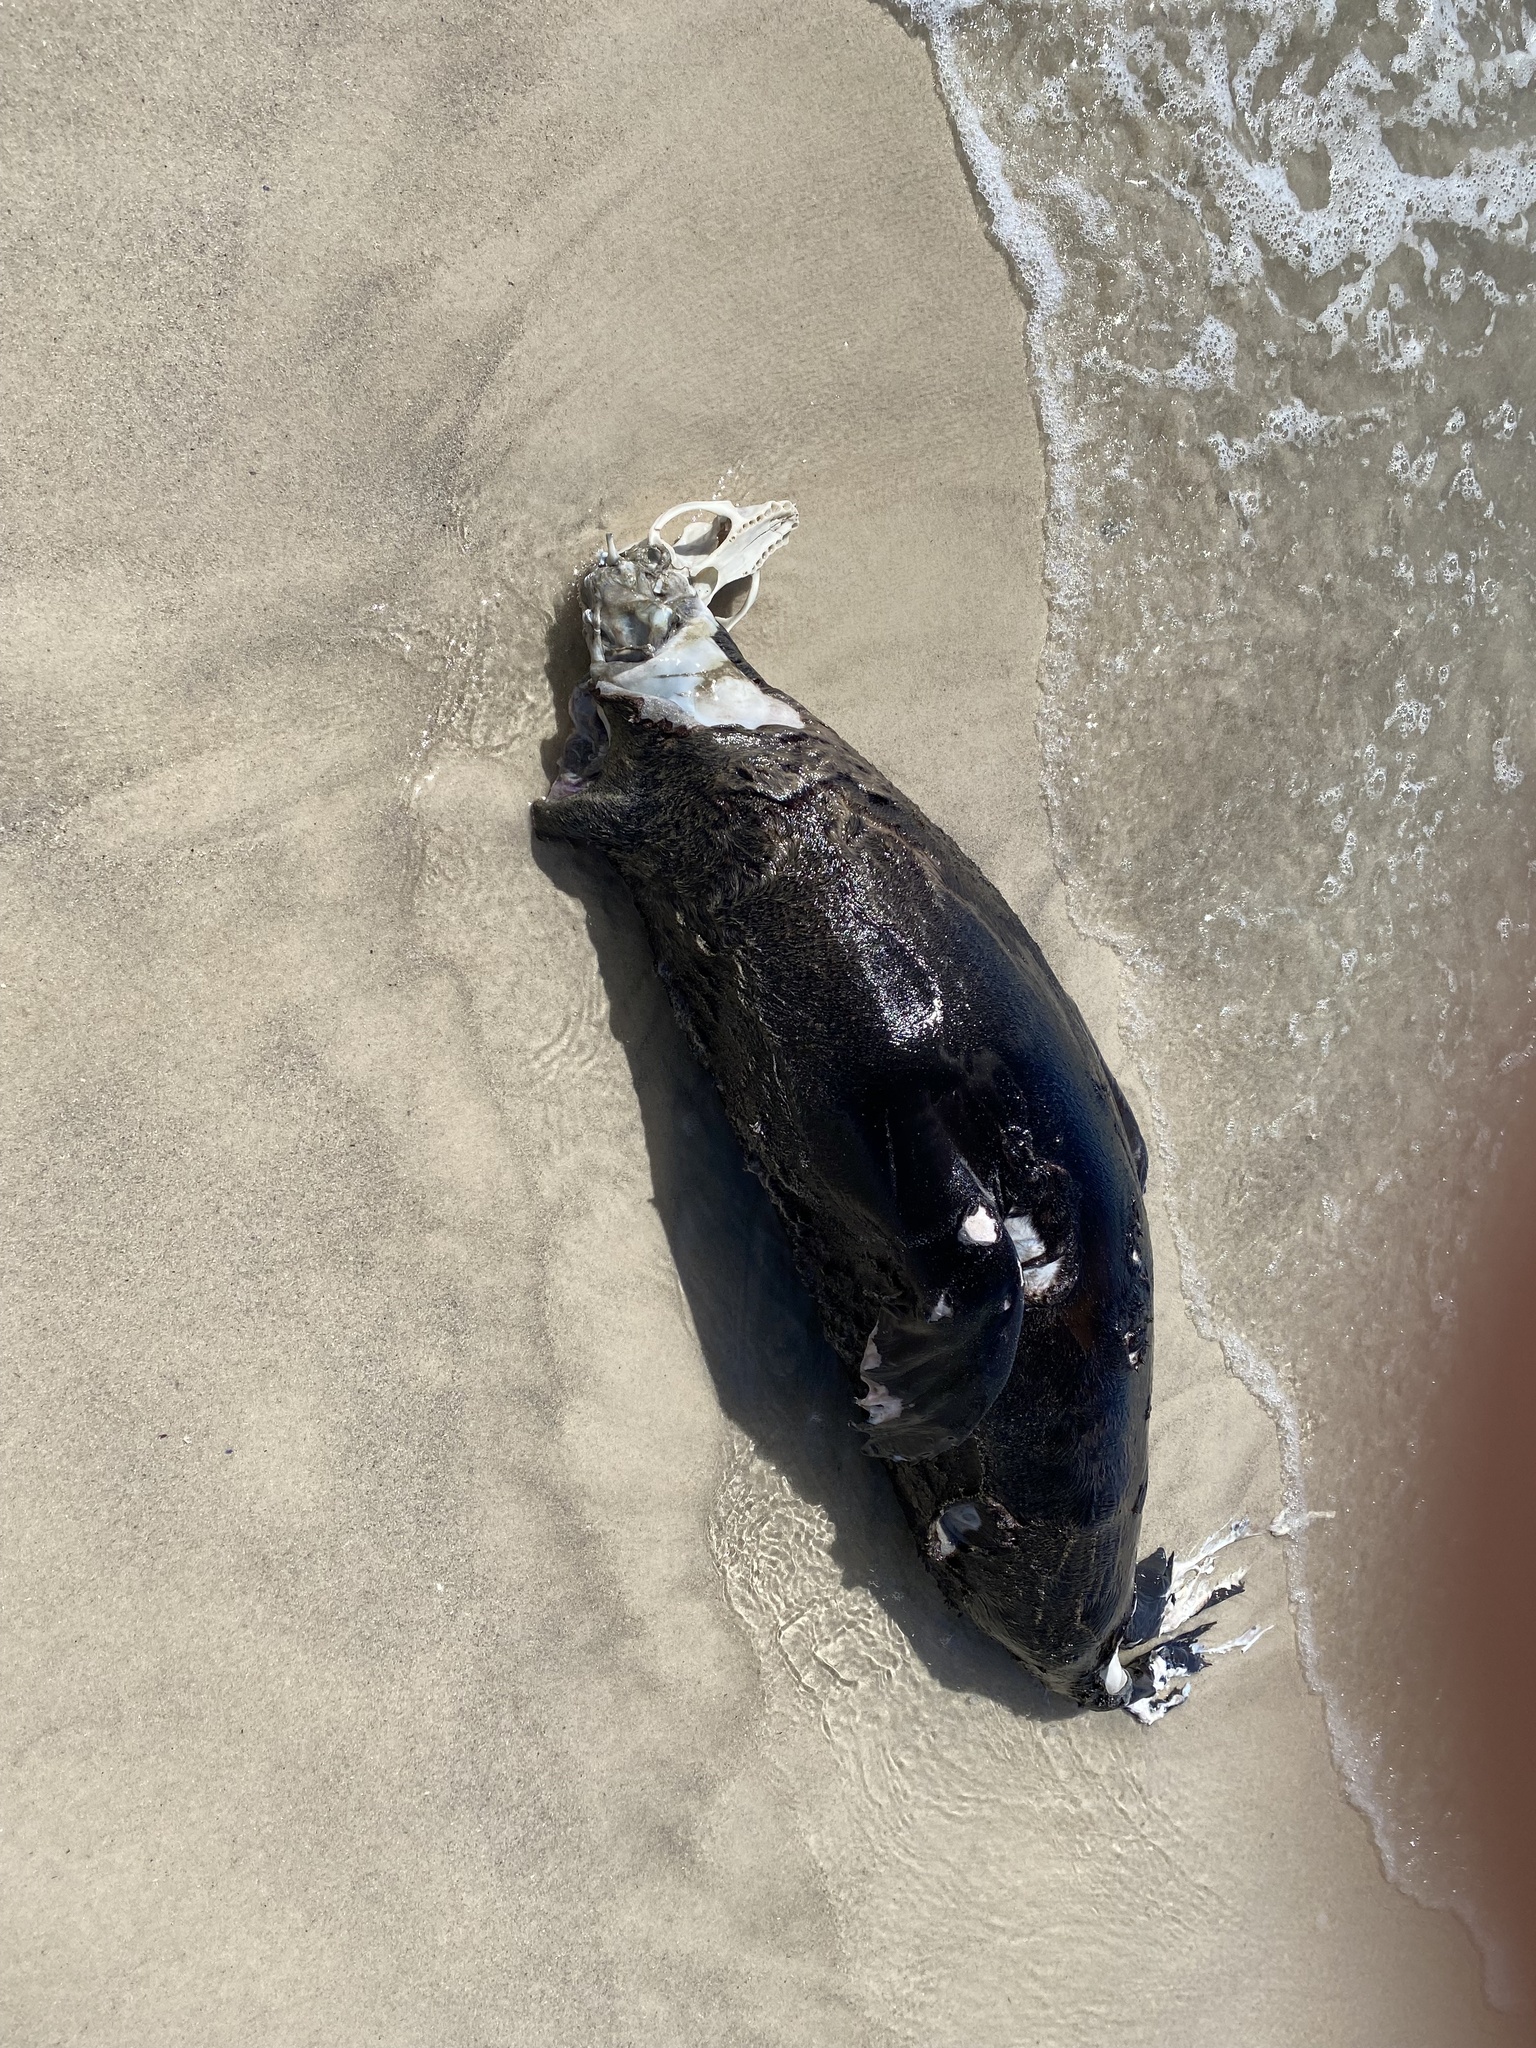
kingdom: Animalia
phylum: Chordata
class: Mammalia
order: Carnivora
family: Otariidae
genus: Arctocephalus
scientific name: Arctocephalus pusillus
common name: Brown fur seal
